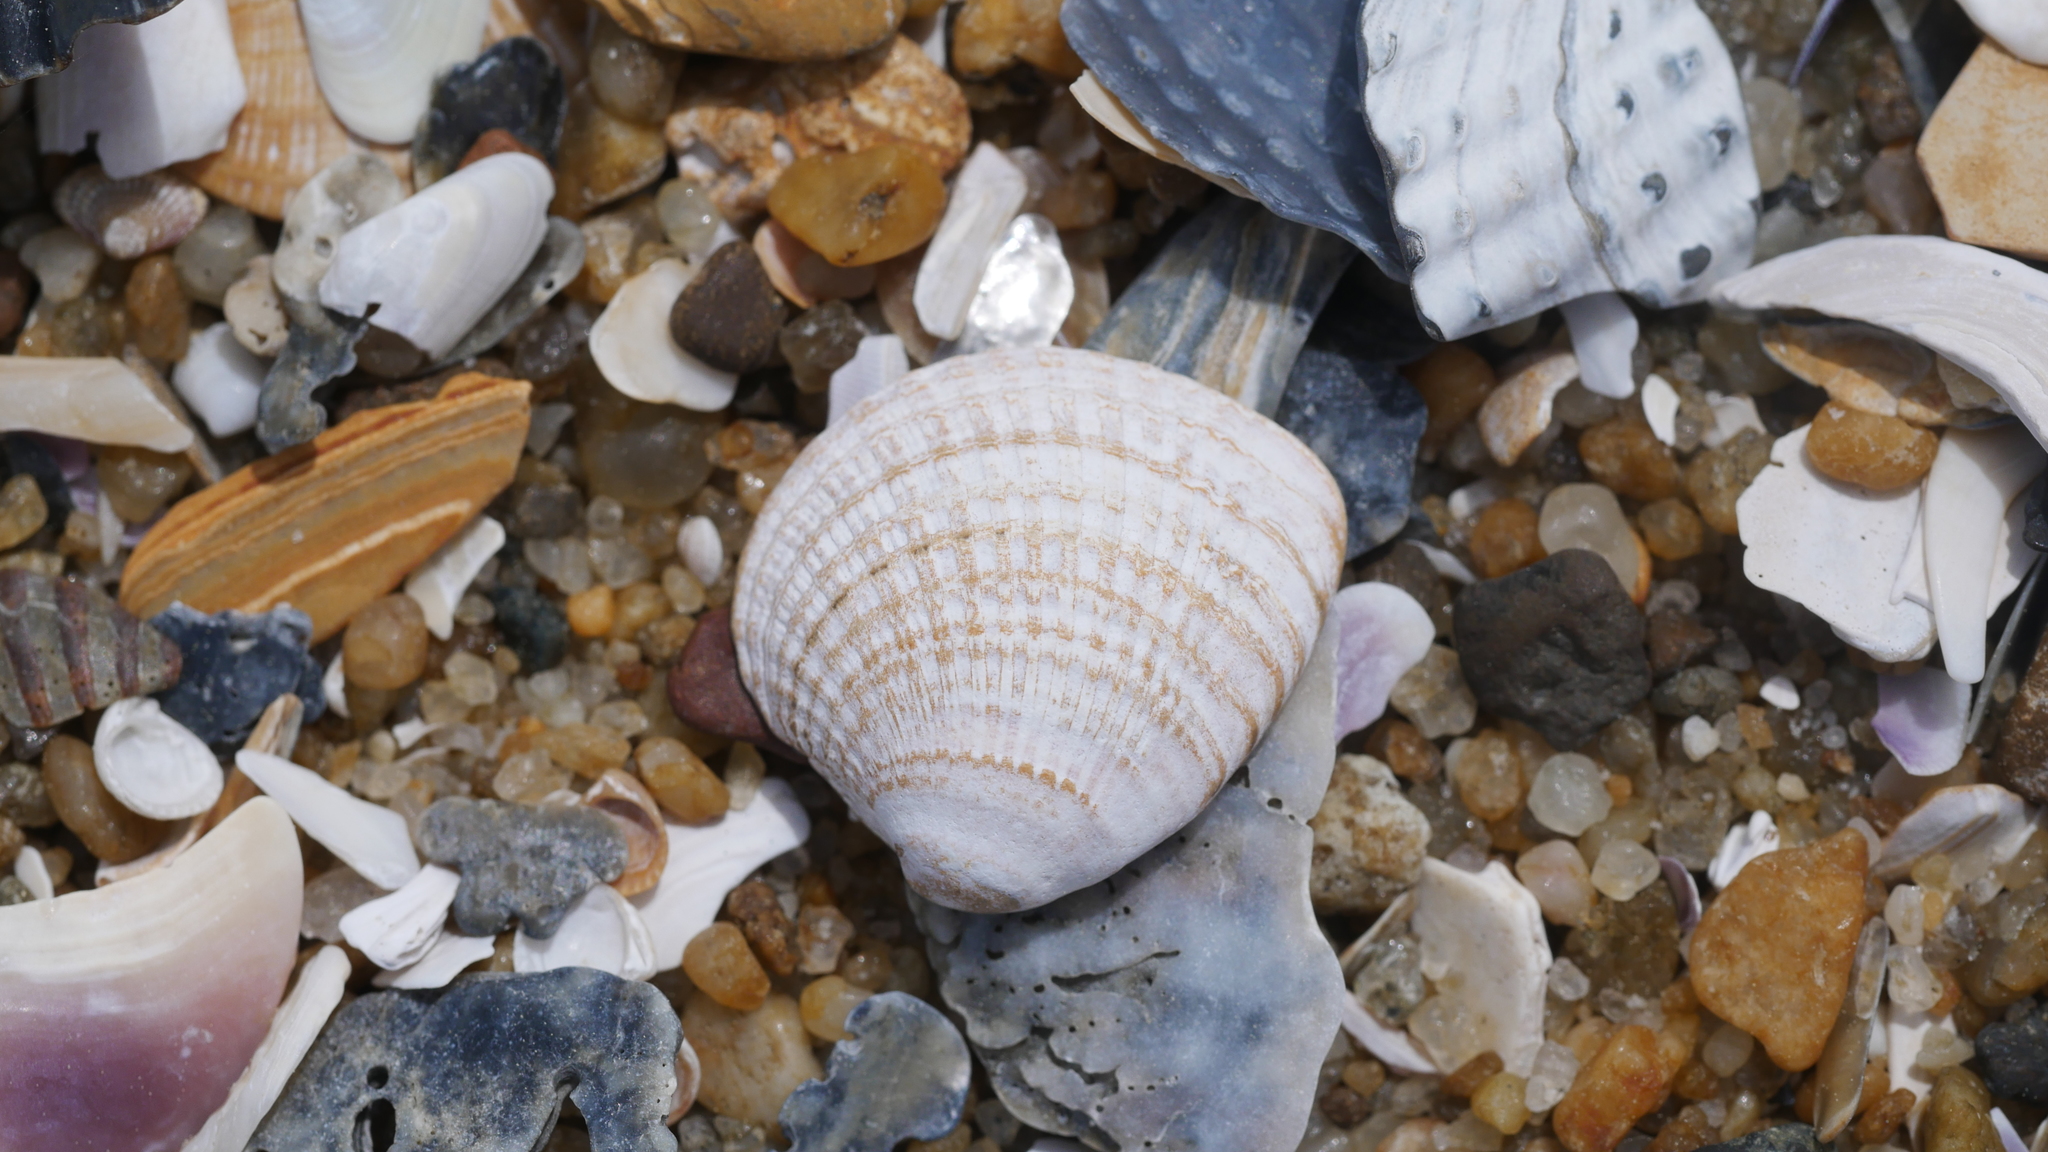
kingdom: Animalia
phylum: Mollusca
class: Bivalvia
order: Venerida
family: Veneridae
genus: Chione
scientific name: Chione elevata
